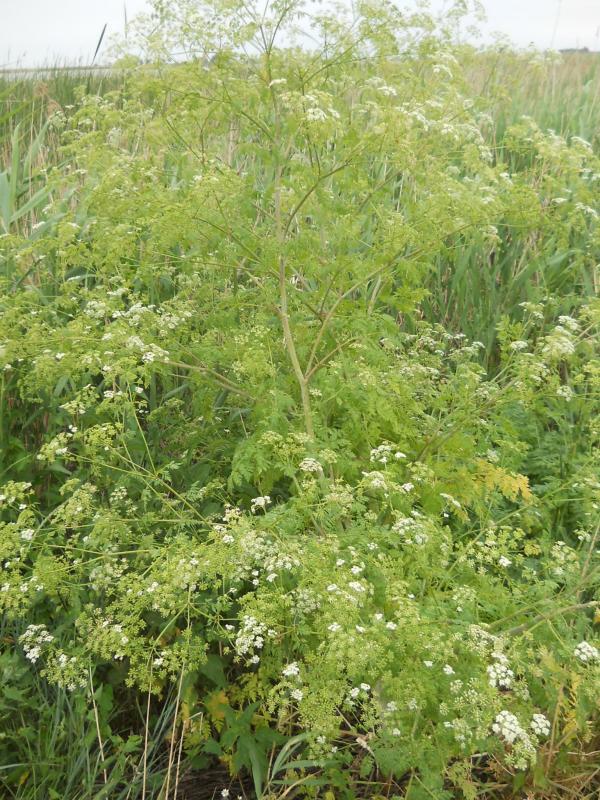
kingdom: Plantae
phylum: Tracheophyta
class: Magnoliopsida
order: Apiales
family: Apiaceae
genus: Conium
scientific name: Conium maculatum
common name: Hemlock
